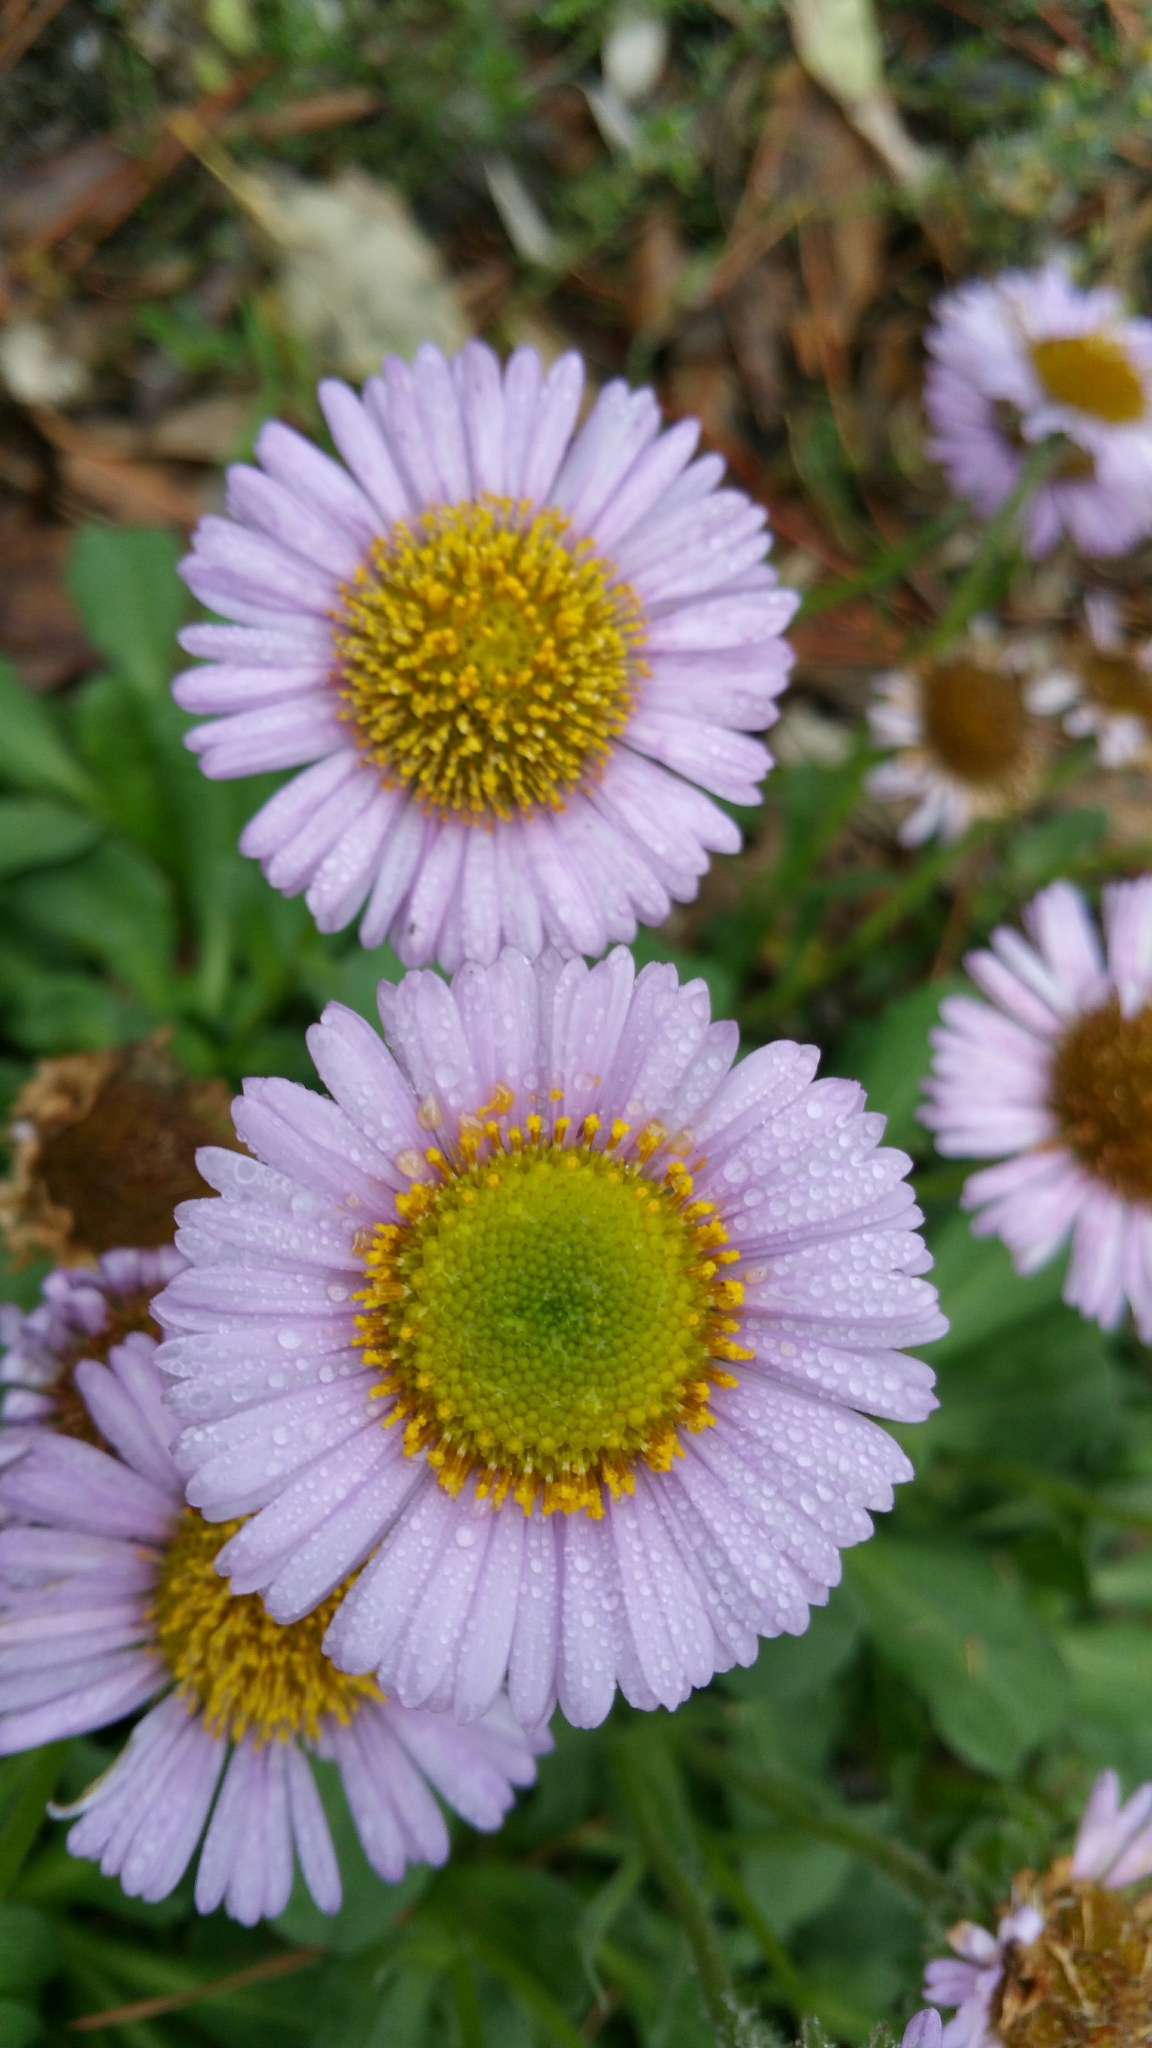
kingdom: Plantae
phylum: Tracheophyta
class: Magnoliopsida
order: Asterales
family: Asteraceae
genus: Erigeron
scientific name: Erigeron glaucus
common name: Seaside daisy
